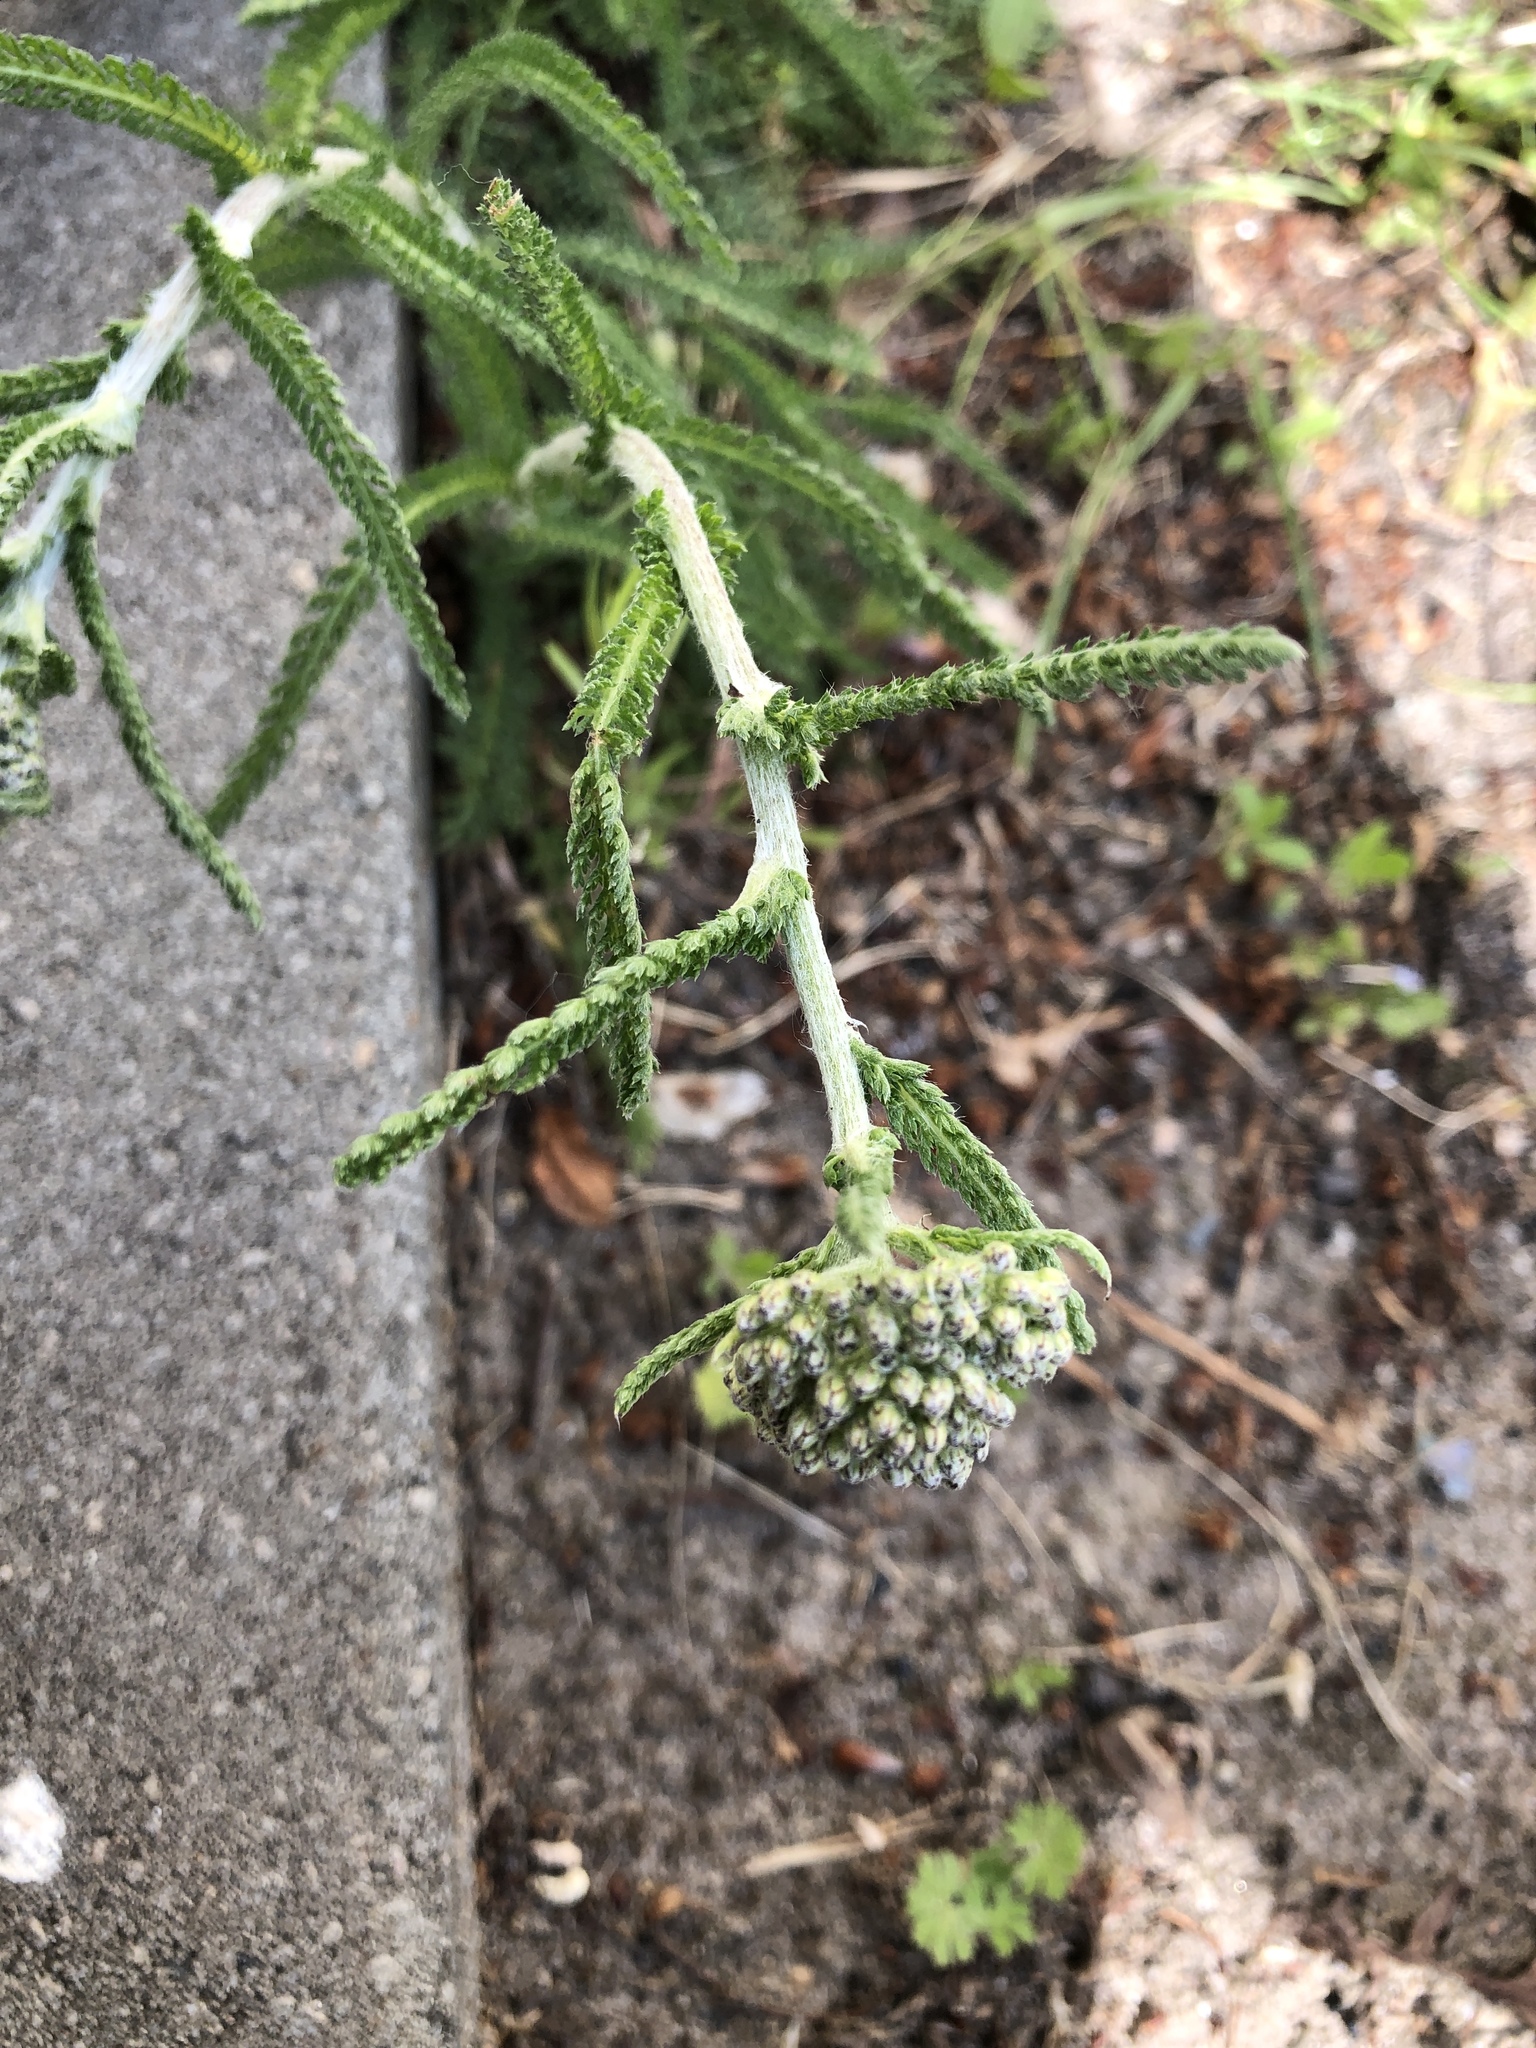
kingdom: Plantae
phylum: Tracheophyta
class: Magnoliopsida
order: Asterales
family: Asteraceae
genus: Achillea
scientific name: Achillea millefolium
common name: Yarrow
